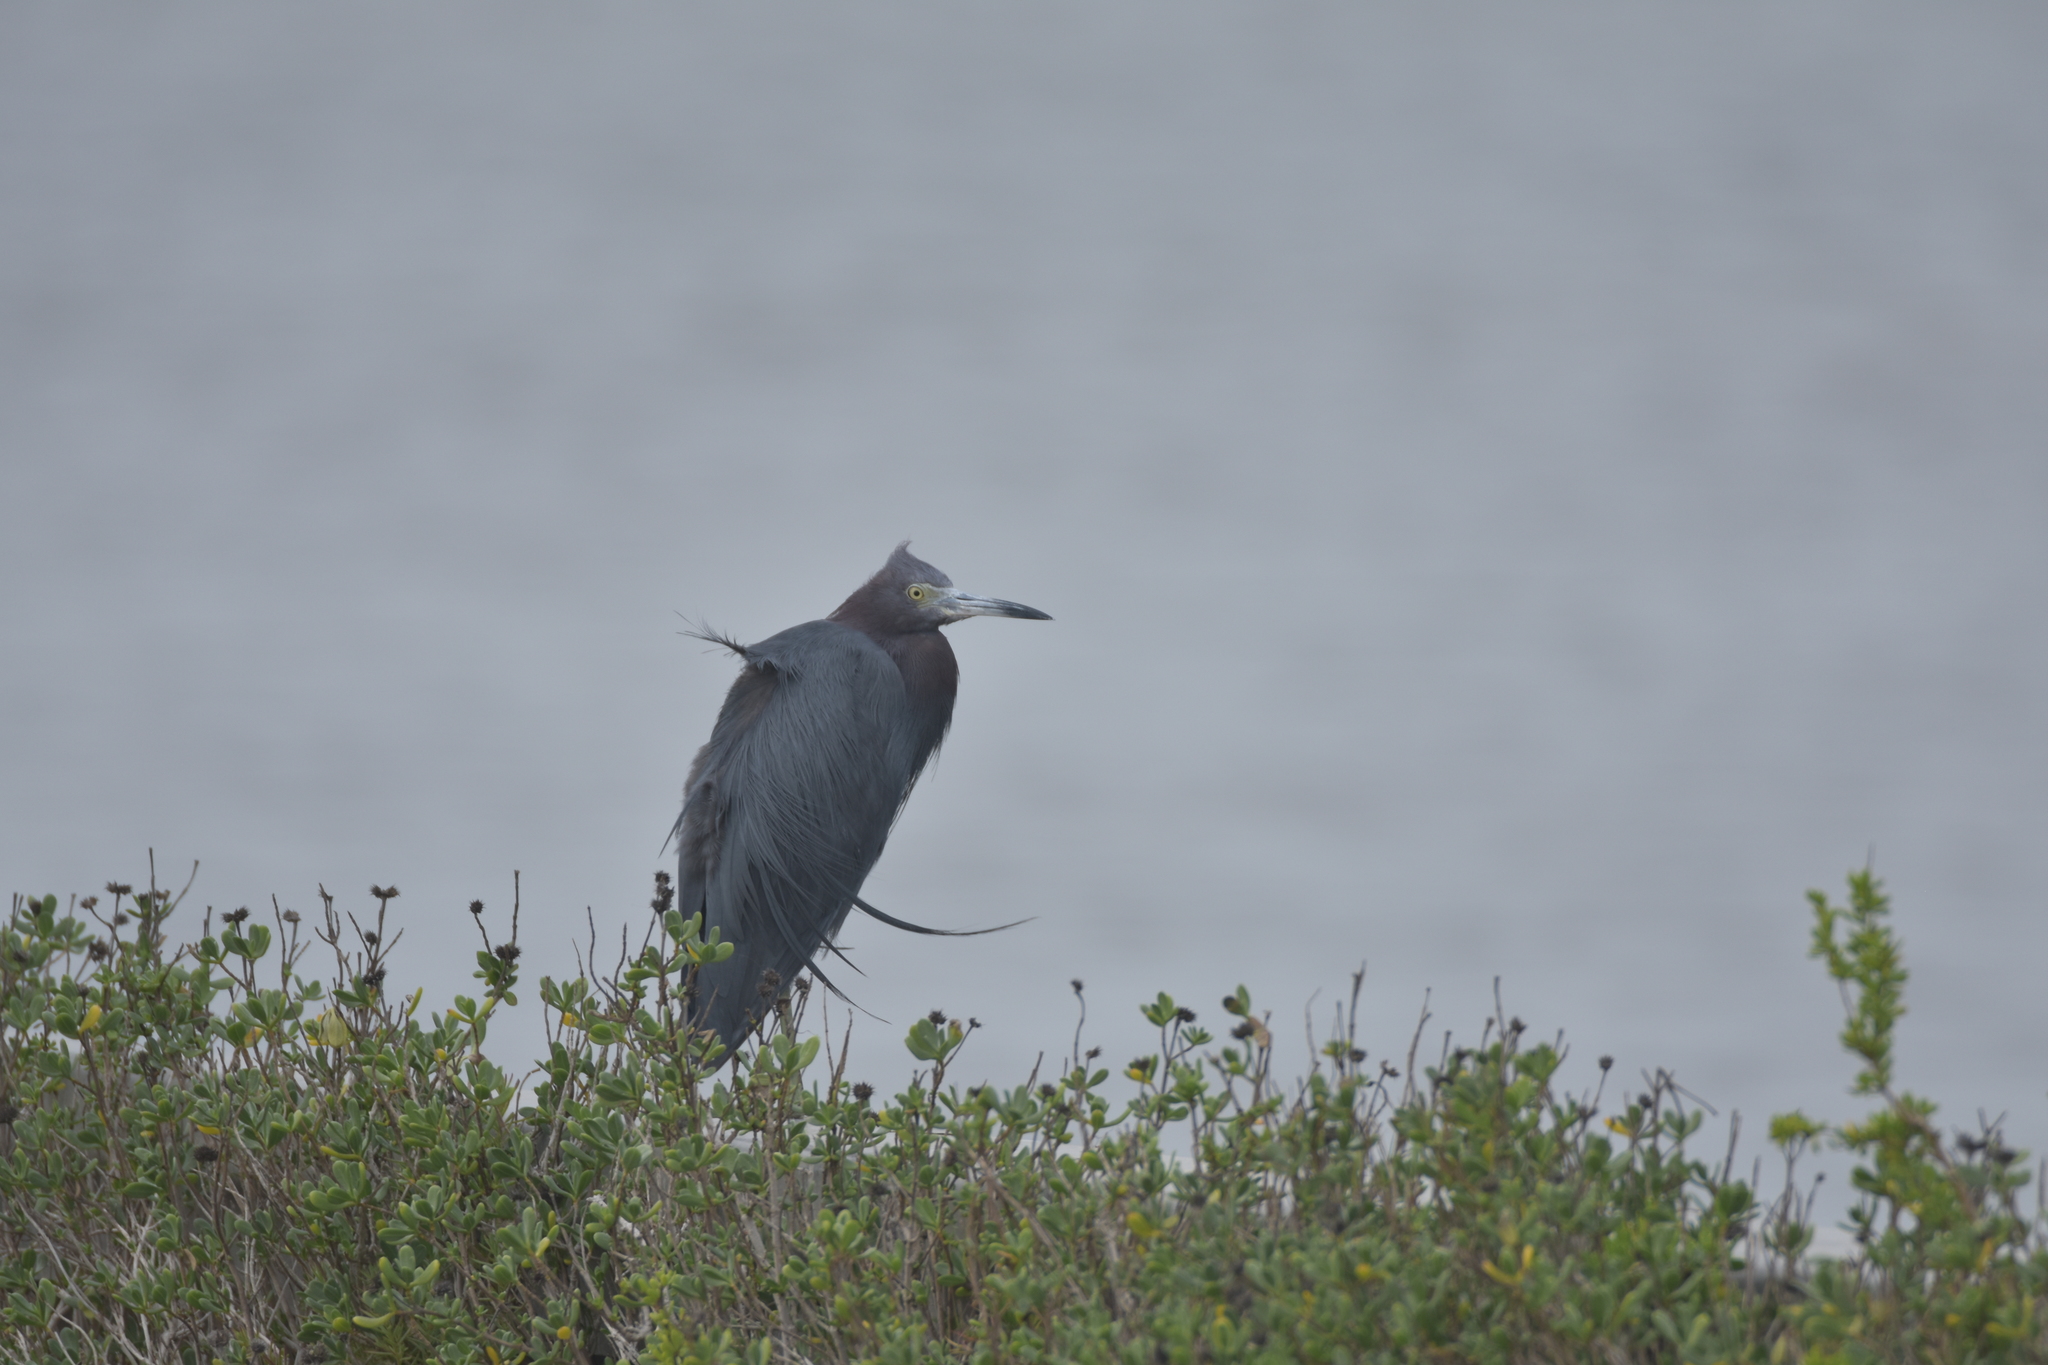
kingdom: Animalia
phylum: Chordata
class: Aves
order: Pelecaniformes
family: Ardeidae
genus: Egretta
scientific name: Egretta caerulea
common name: Little blue heron
